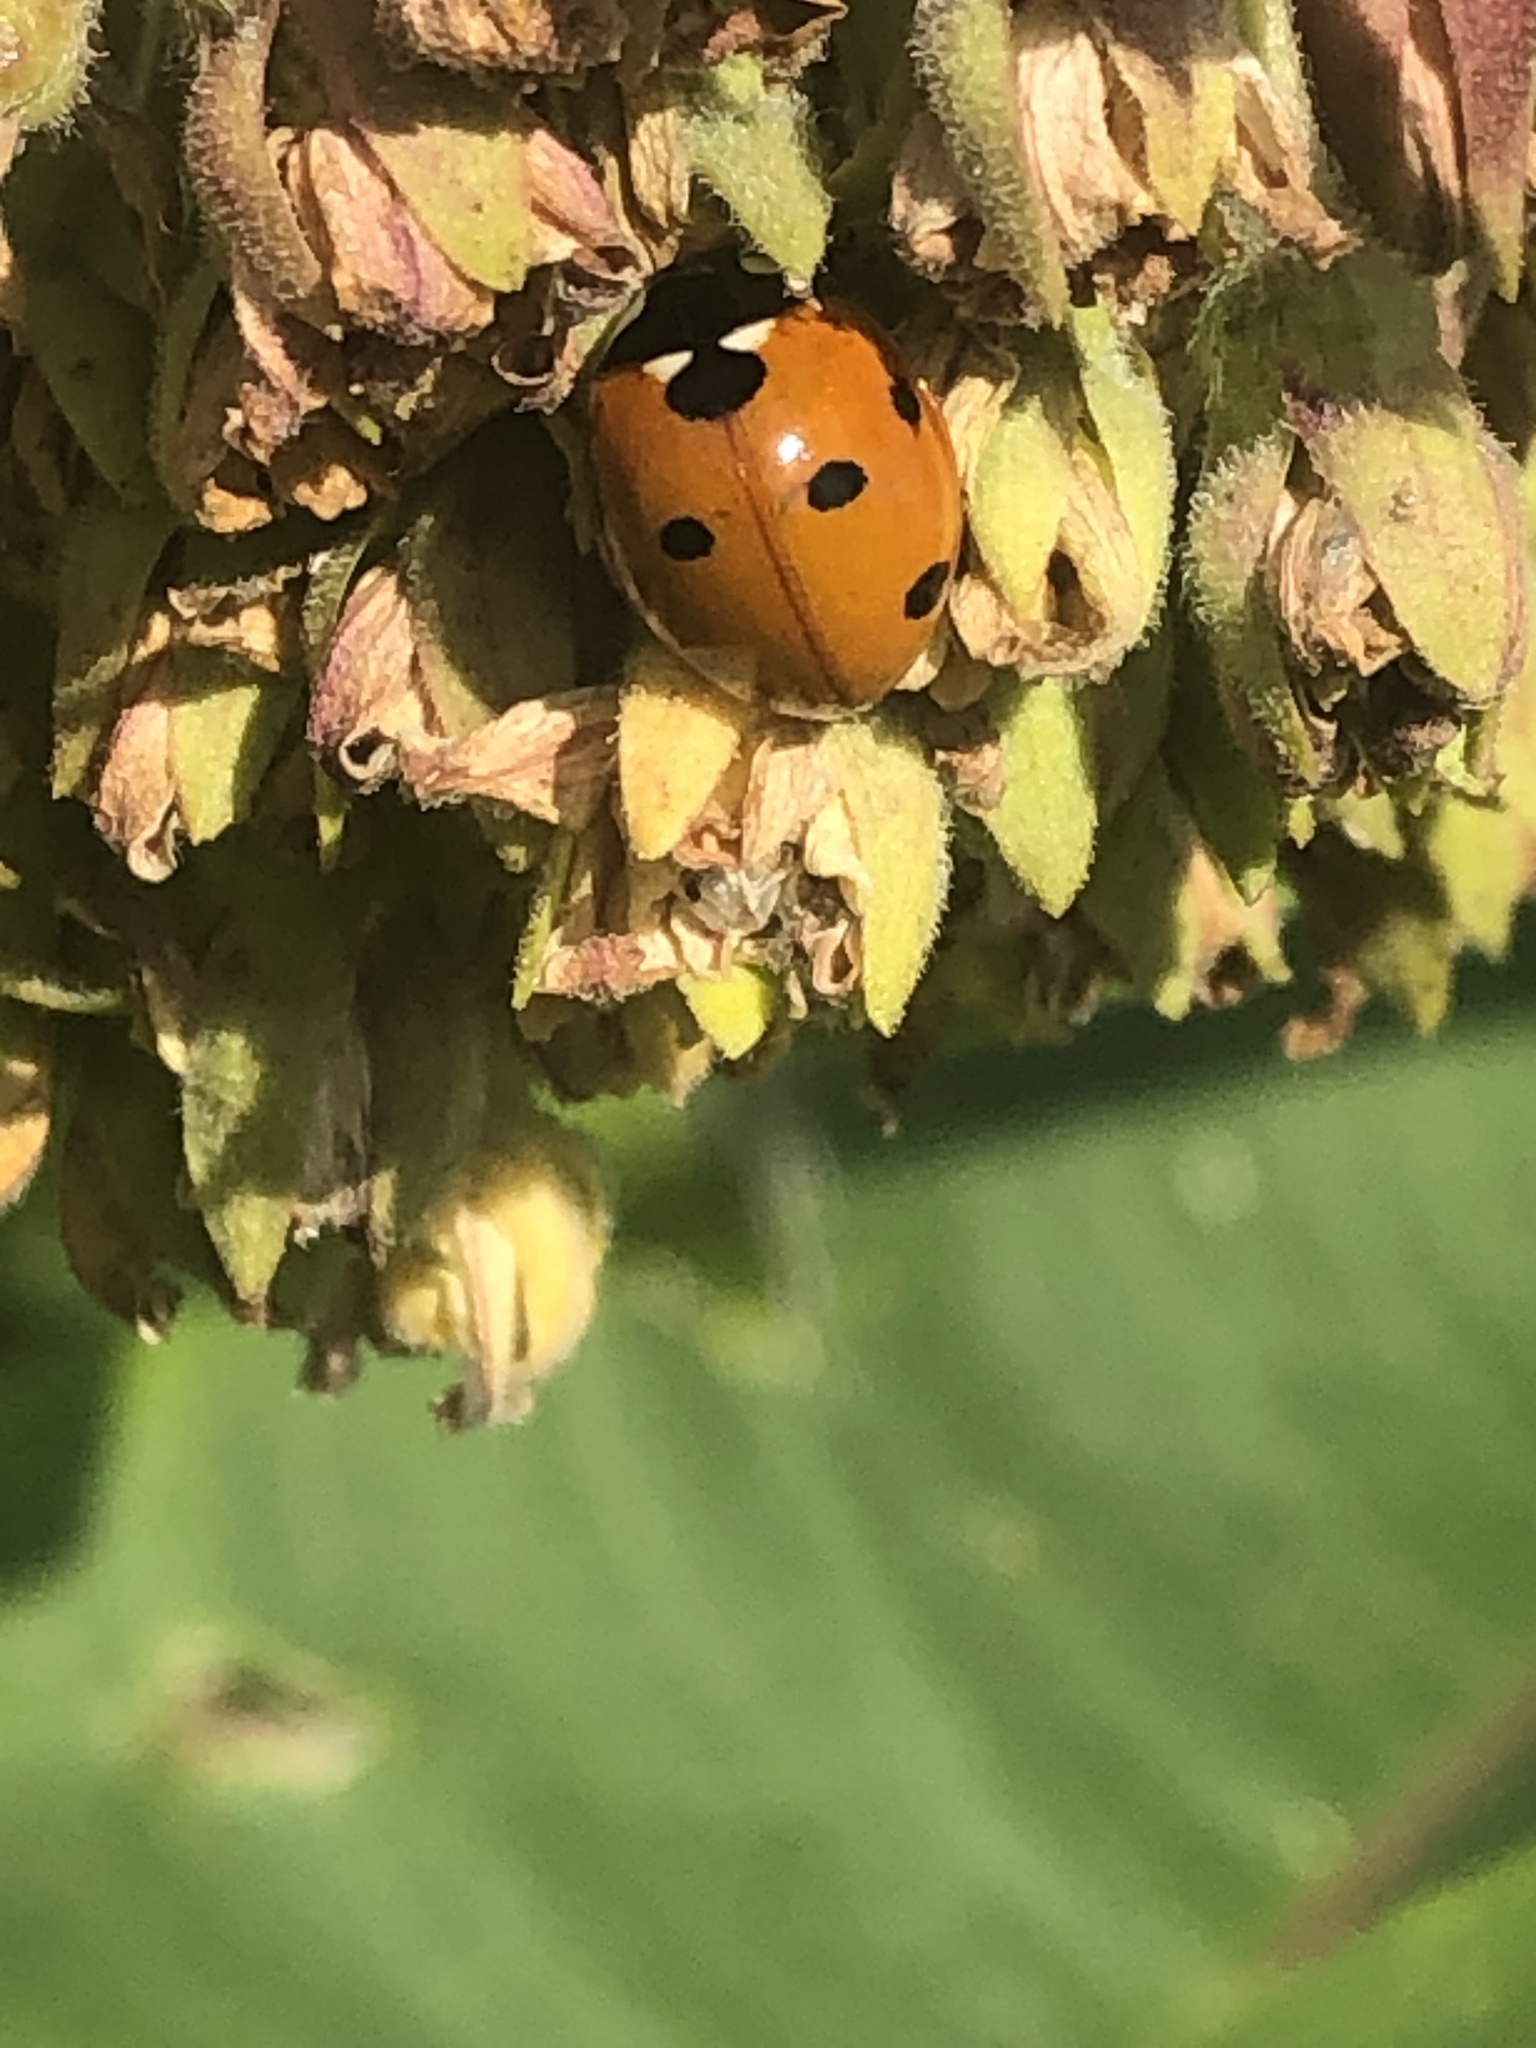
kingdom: Animalia
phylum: Arthropoda
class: Insecta
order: Coleoptera
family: Coccinellidae
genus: Coccinella
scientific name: Coccinella septempunctata
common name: Sevenspotted lady beetle
